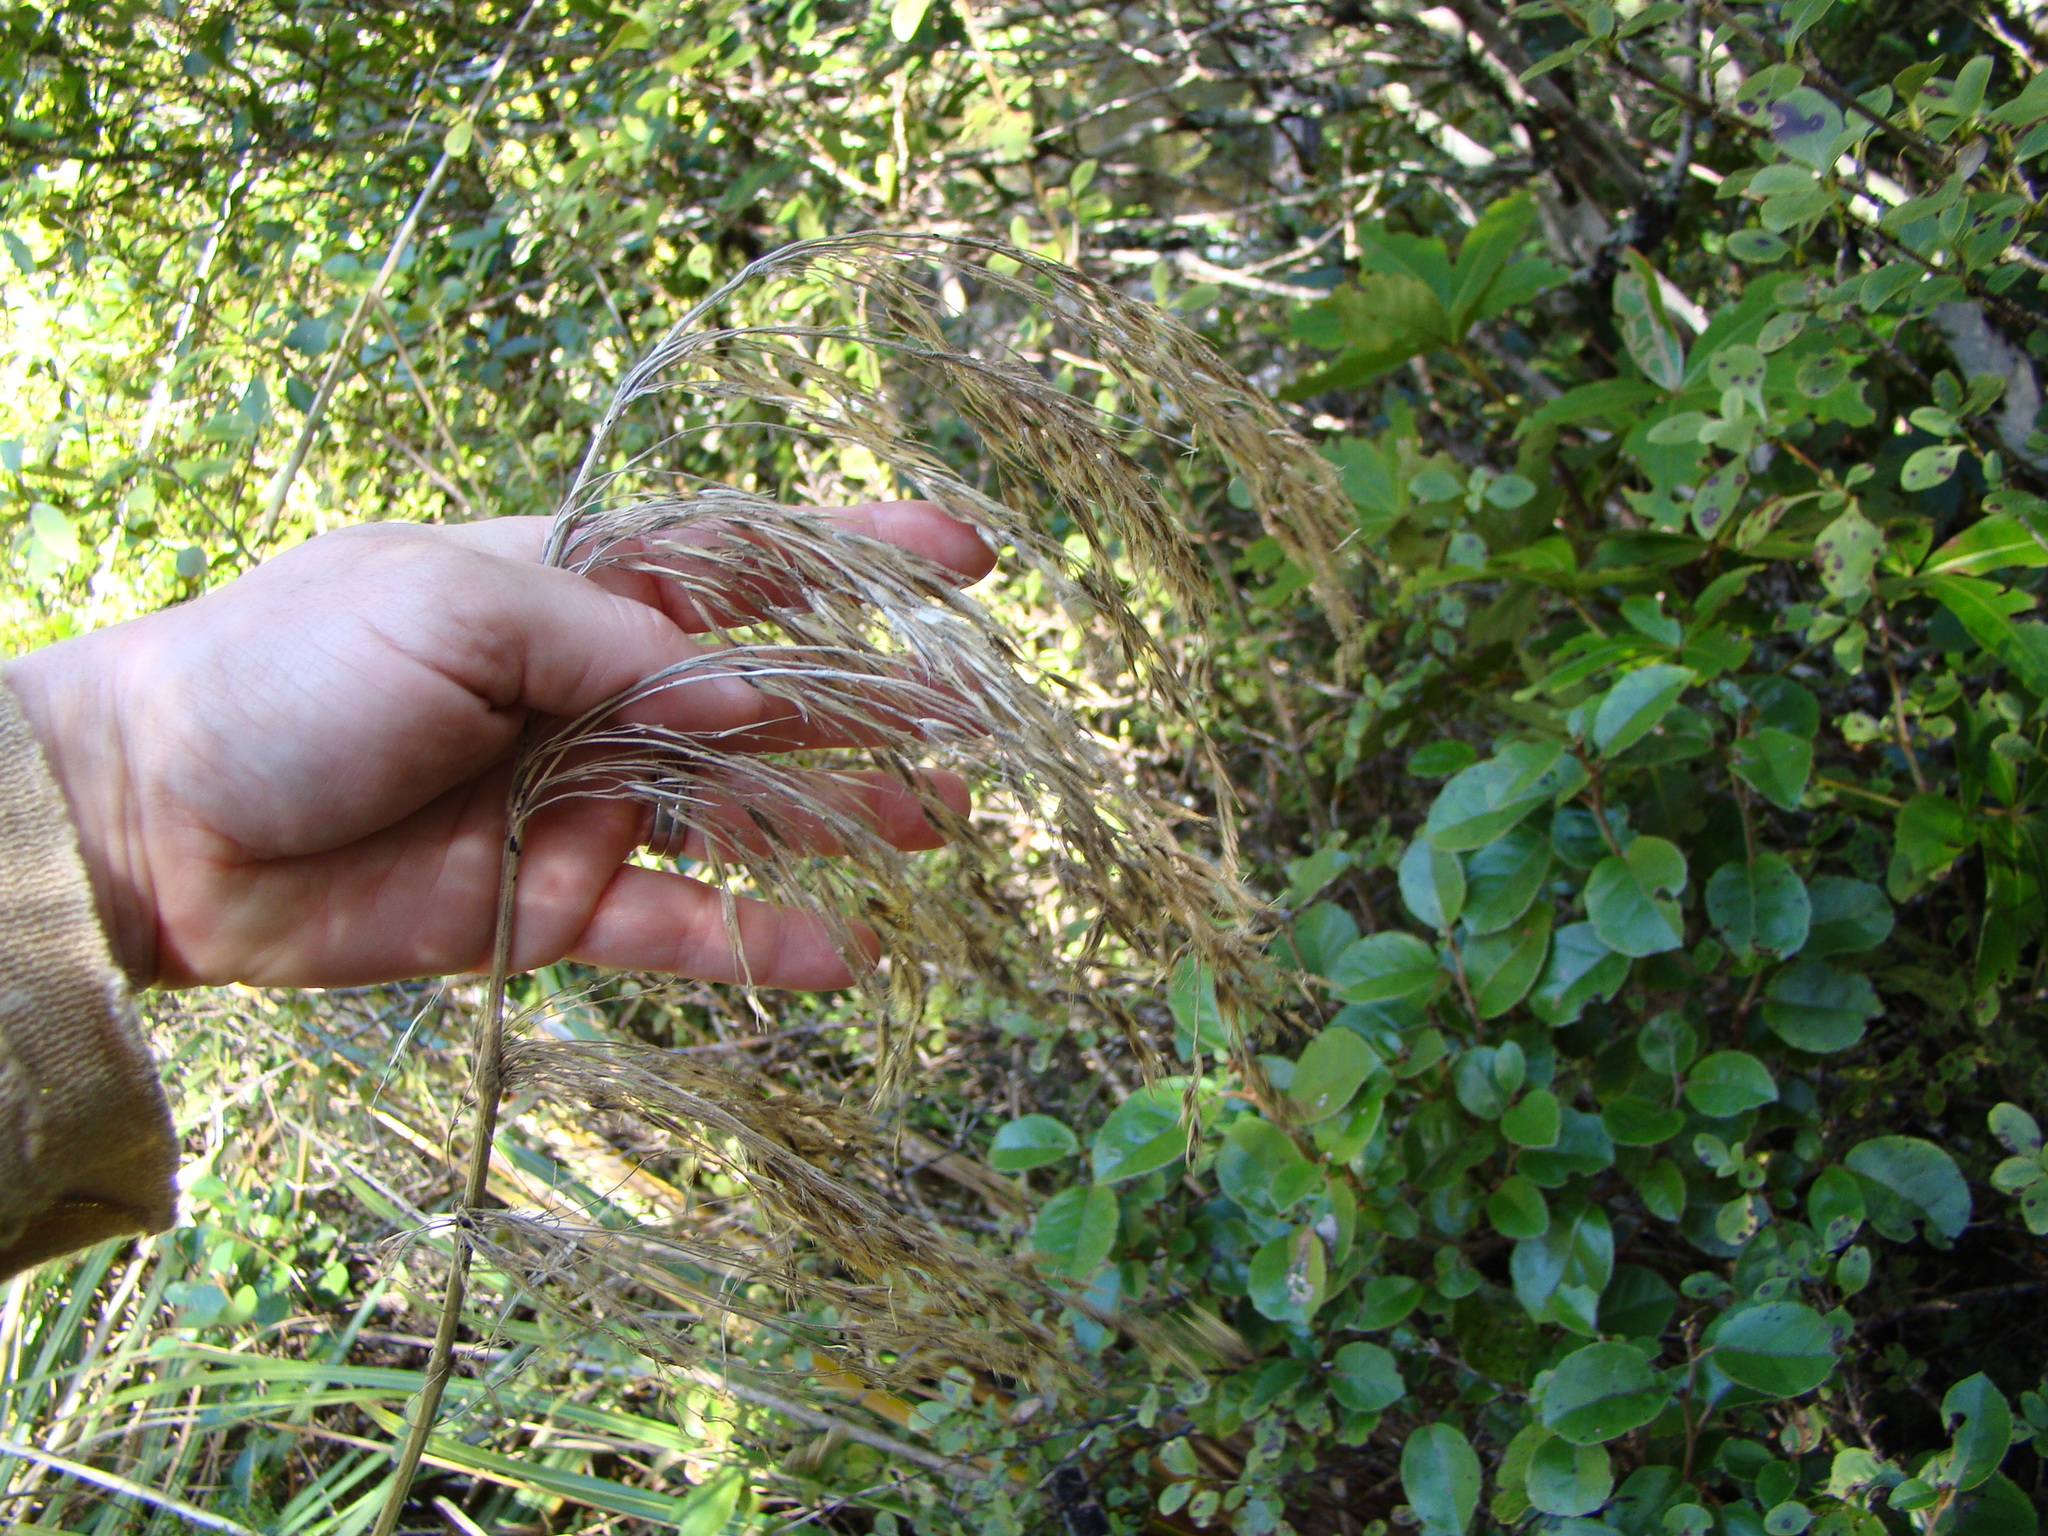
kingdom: Plantae
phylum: Tracheophyta
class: Liliopsida
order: Poales
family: Poaceae
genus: Austroderia
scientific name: Austroderia fulvida
